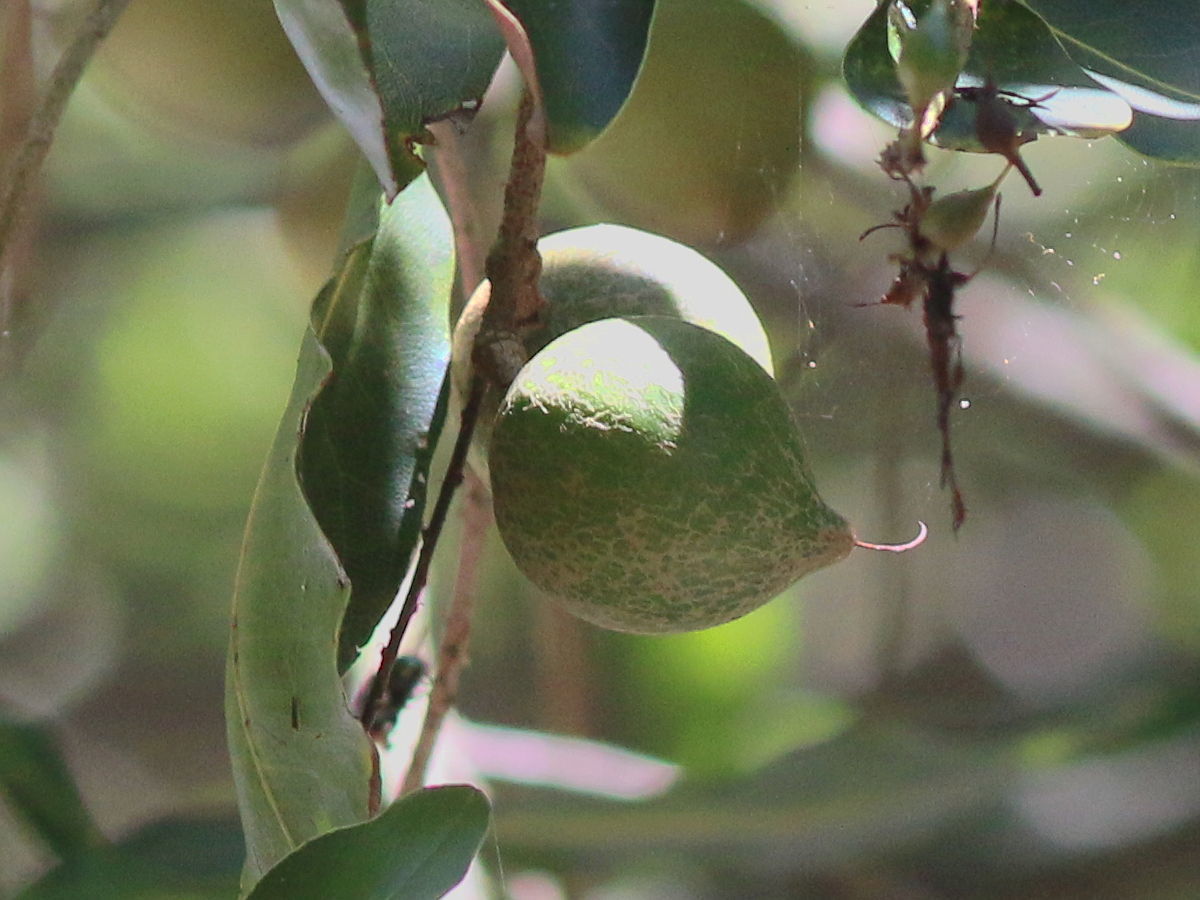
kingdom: Plantae
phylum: Tracheophyta
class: Magnoliopsida
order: Proteales
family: Proteaceae
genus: Macadamia
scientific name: Macadamia tetraphylla
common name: Macadamia nut
